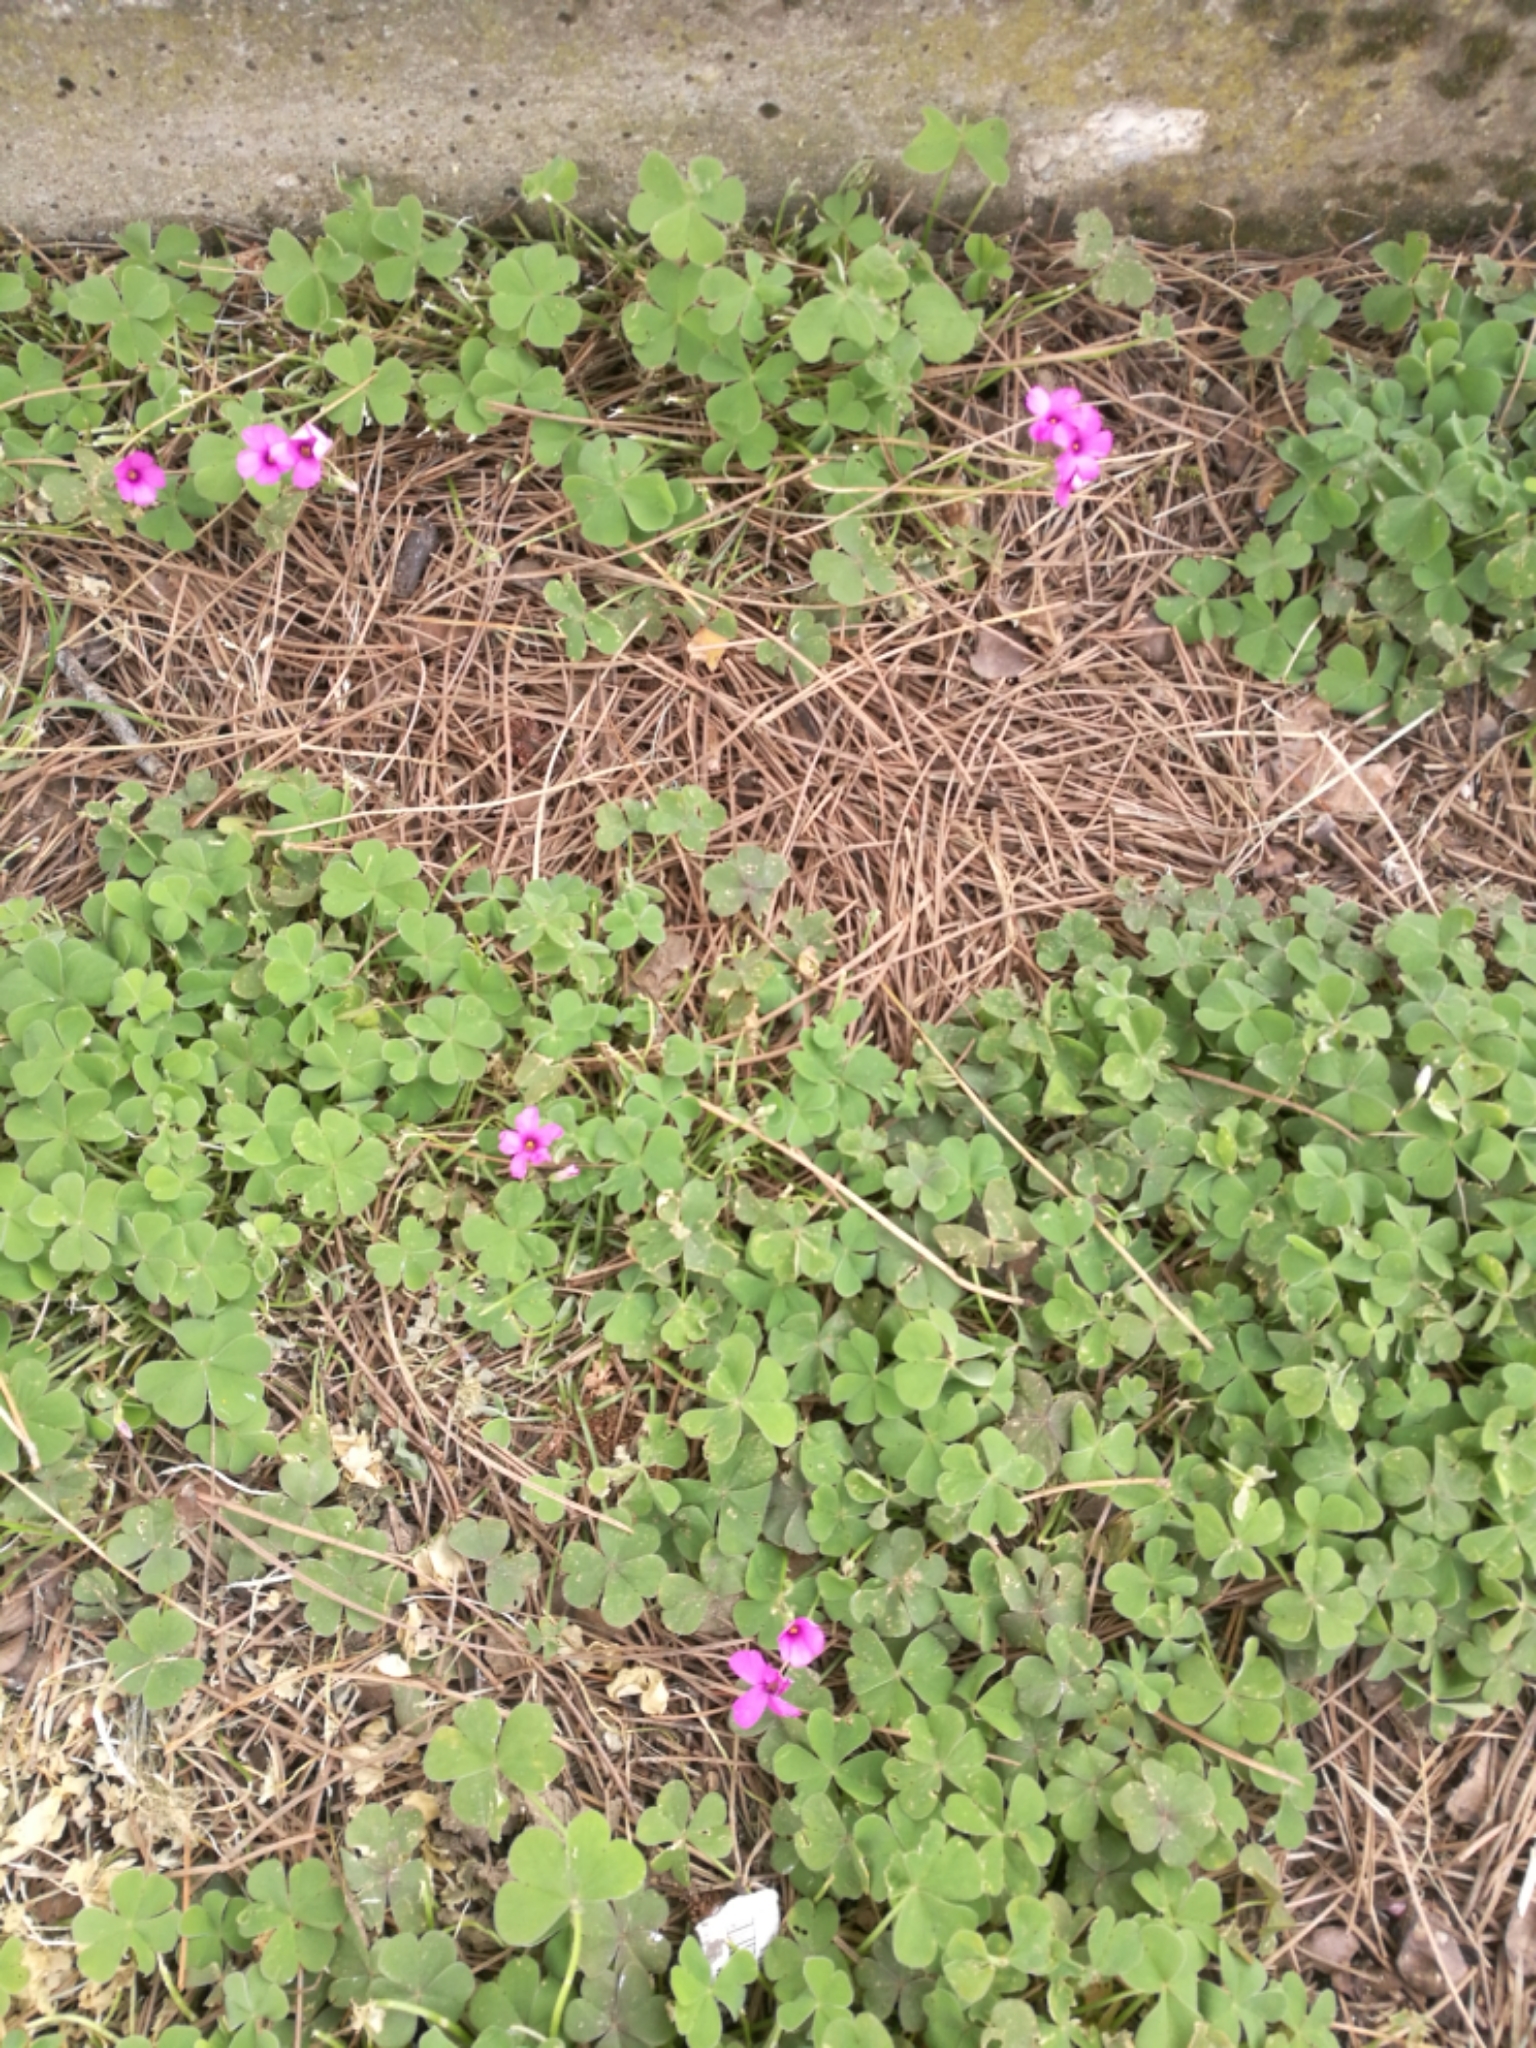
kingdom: Plantae
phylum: Tracheophyta
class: Magnoliopsida
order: Oxalidales
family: Oxalidaceae
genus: Oxalis
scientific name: Oxalis articulata
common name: Pink-sorrel
